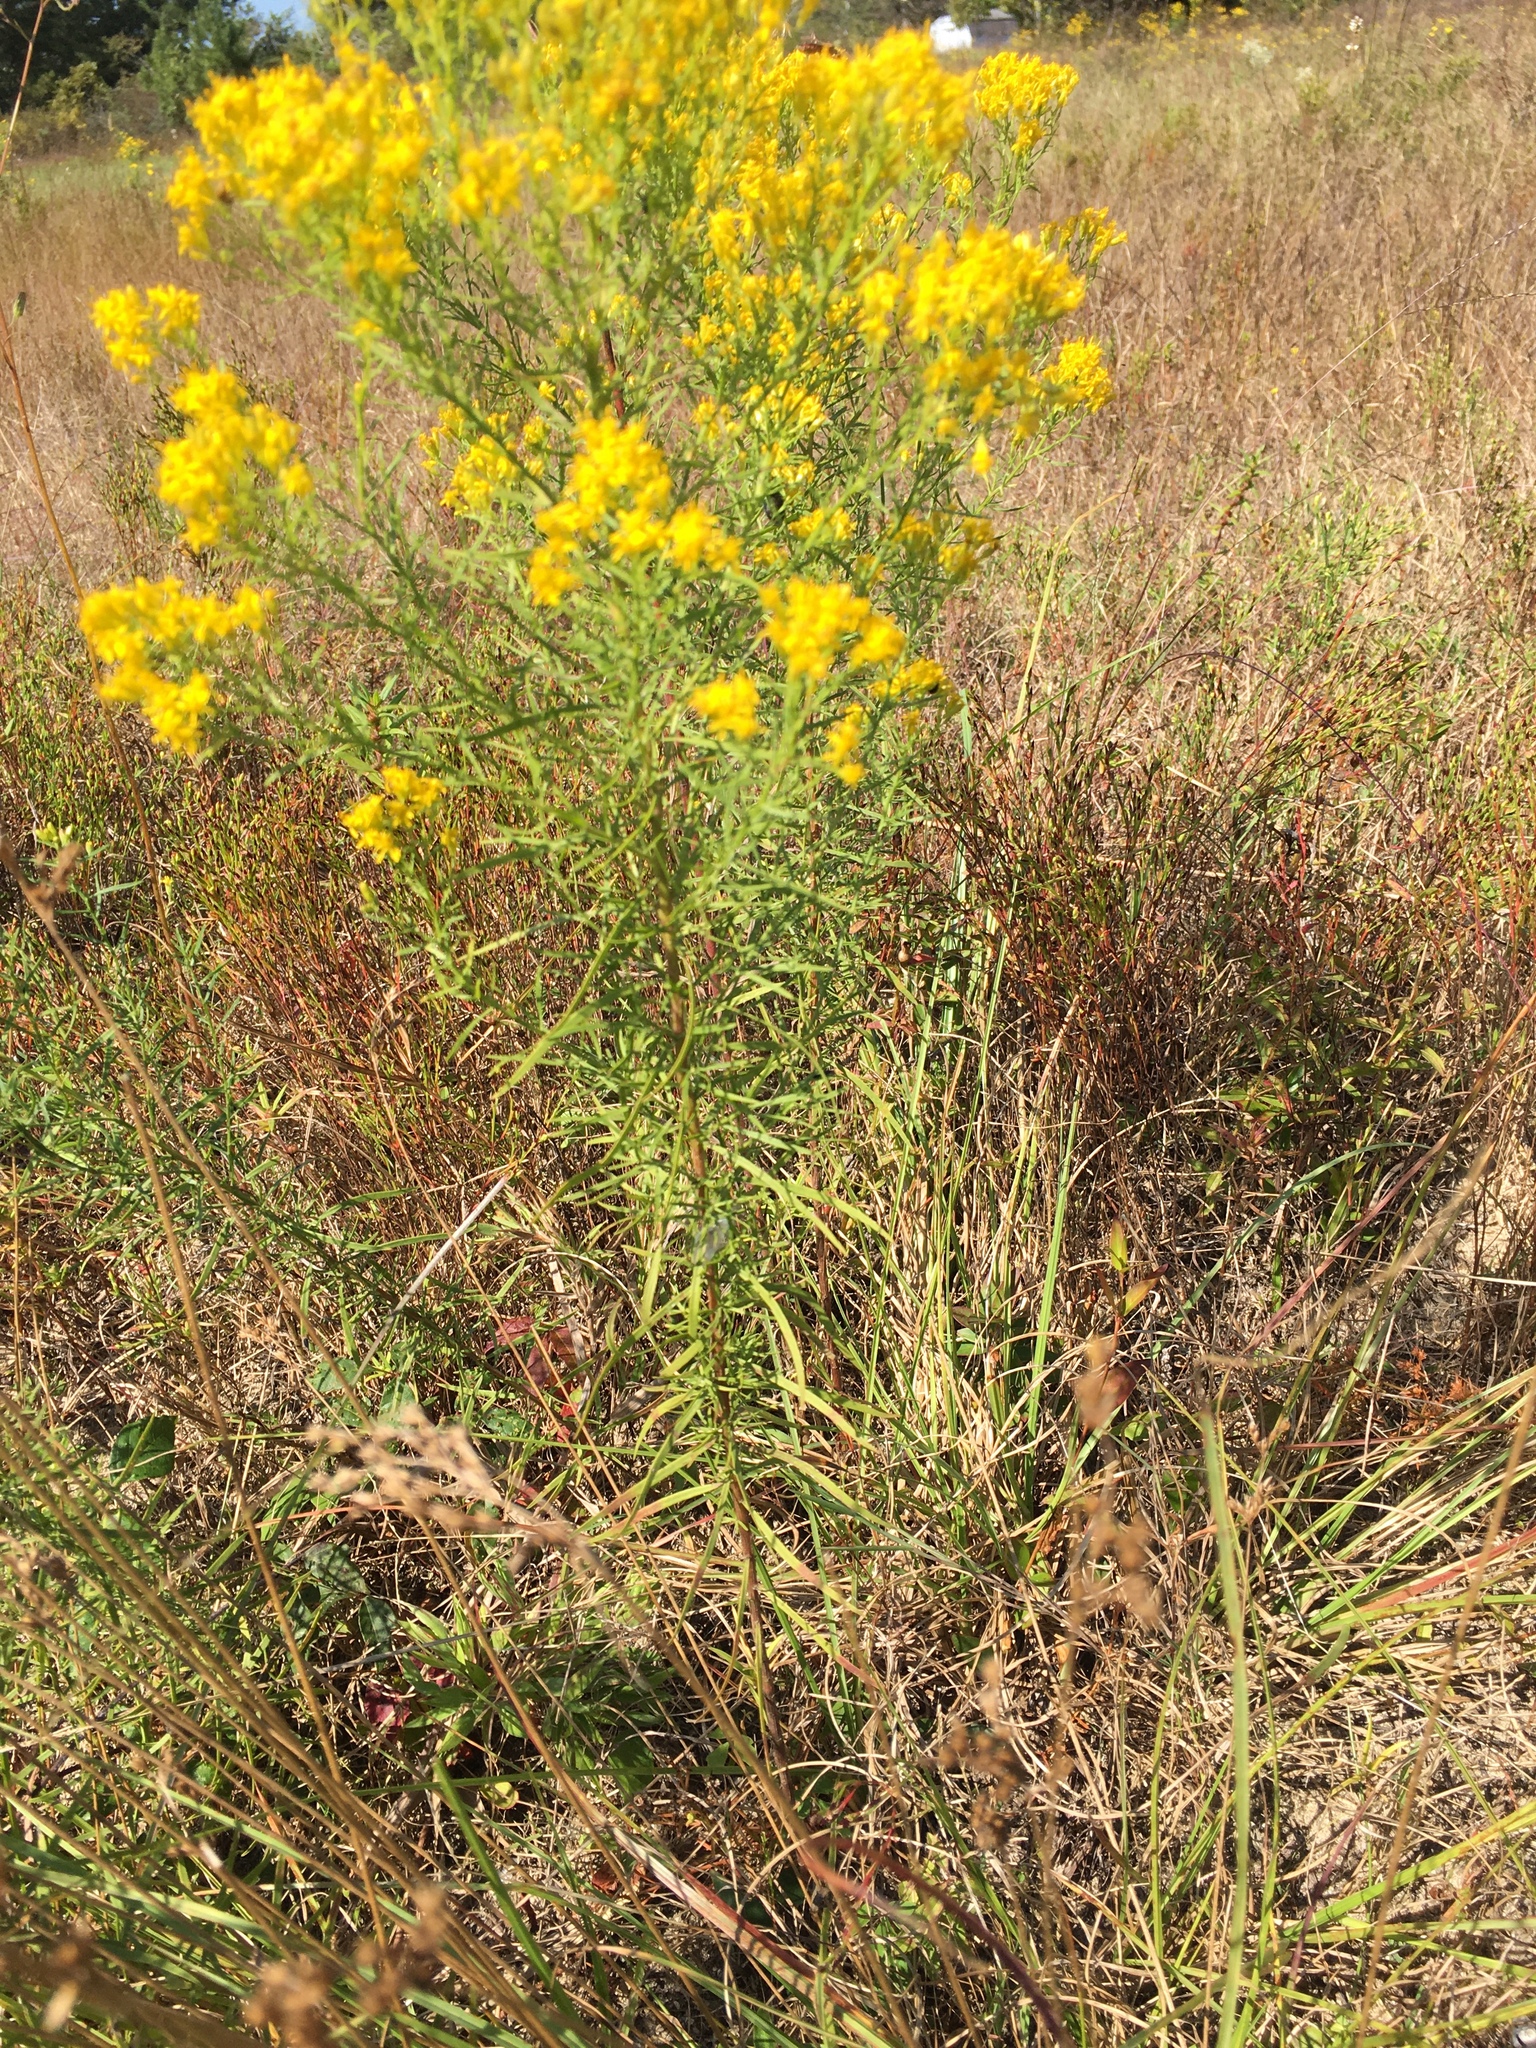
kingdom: Plantae
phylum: Tracheophyta
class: Magnoliopsida
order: Asterales
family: Asteraceae
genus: Euthamia
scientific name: Euthamia caroliniana
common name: Coastal plain goldentop
